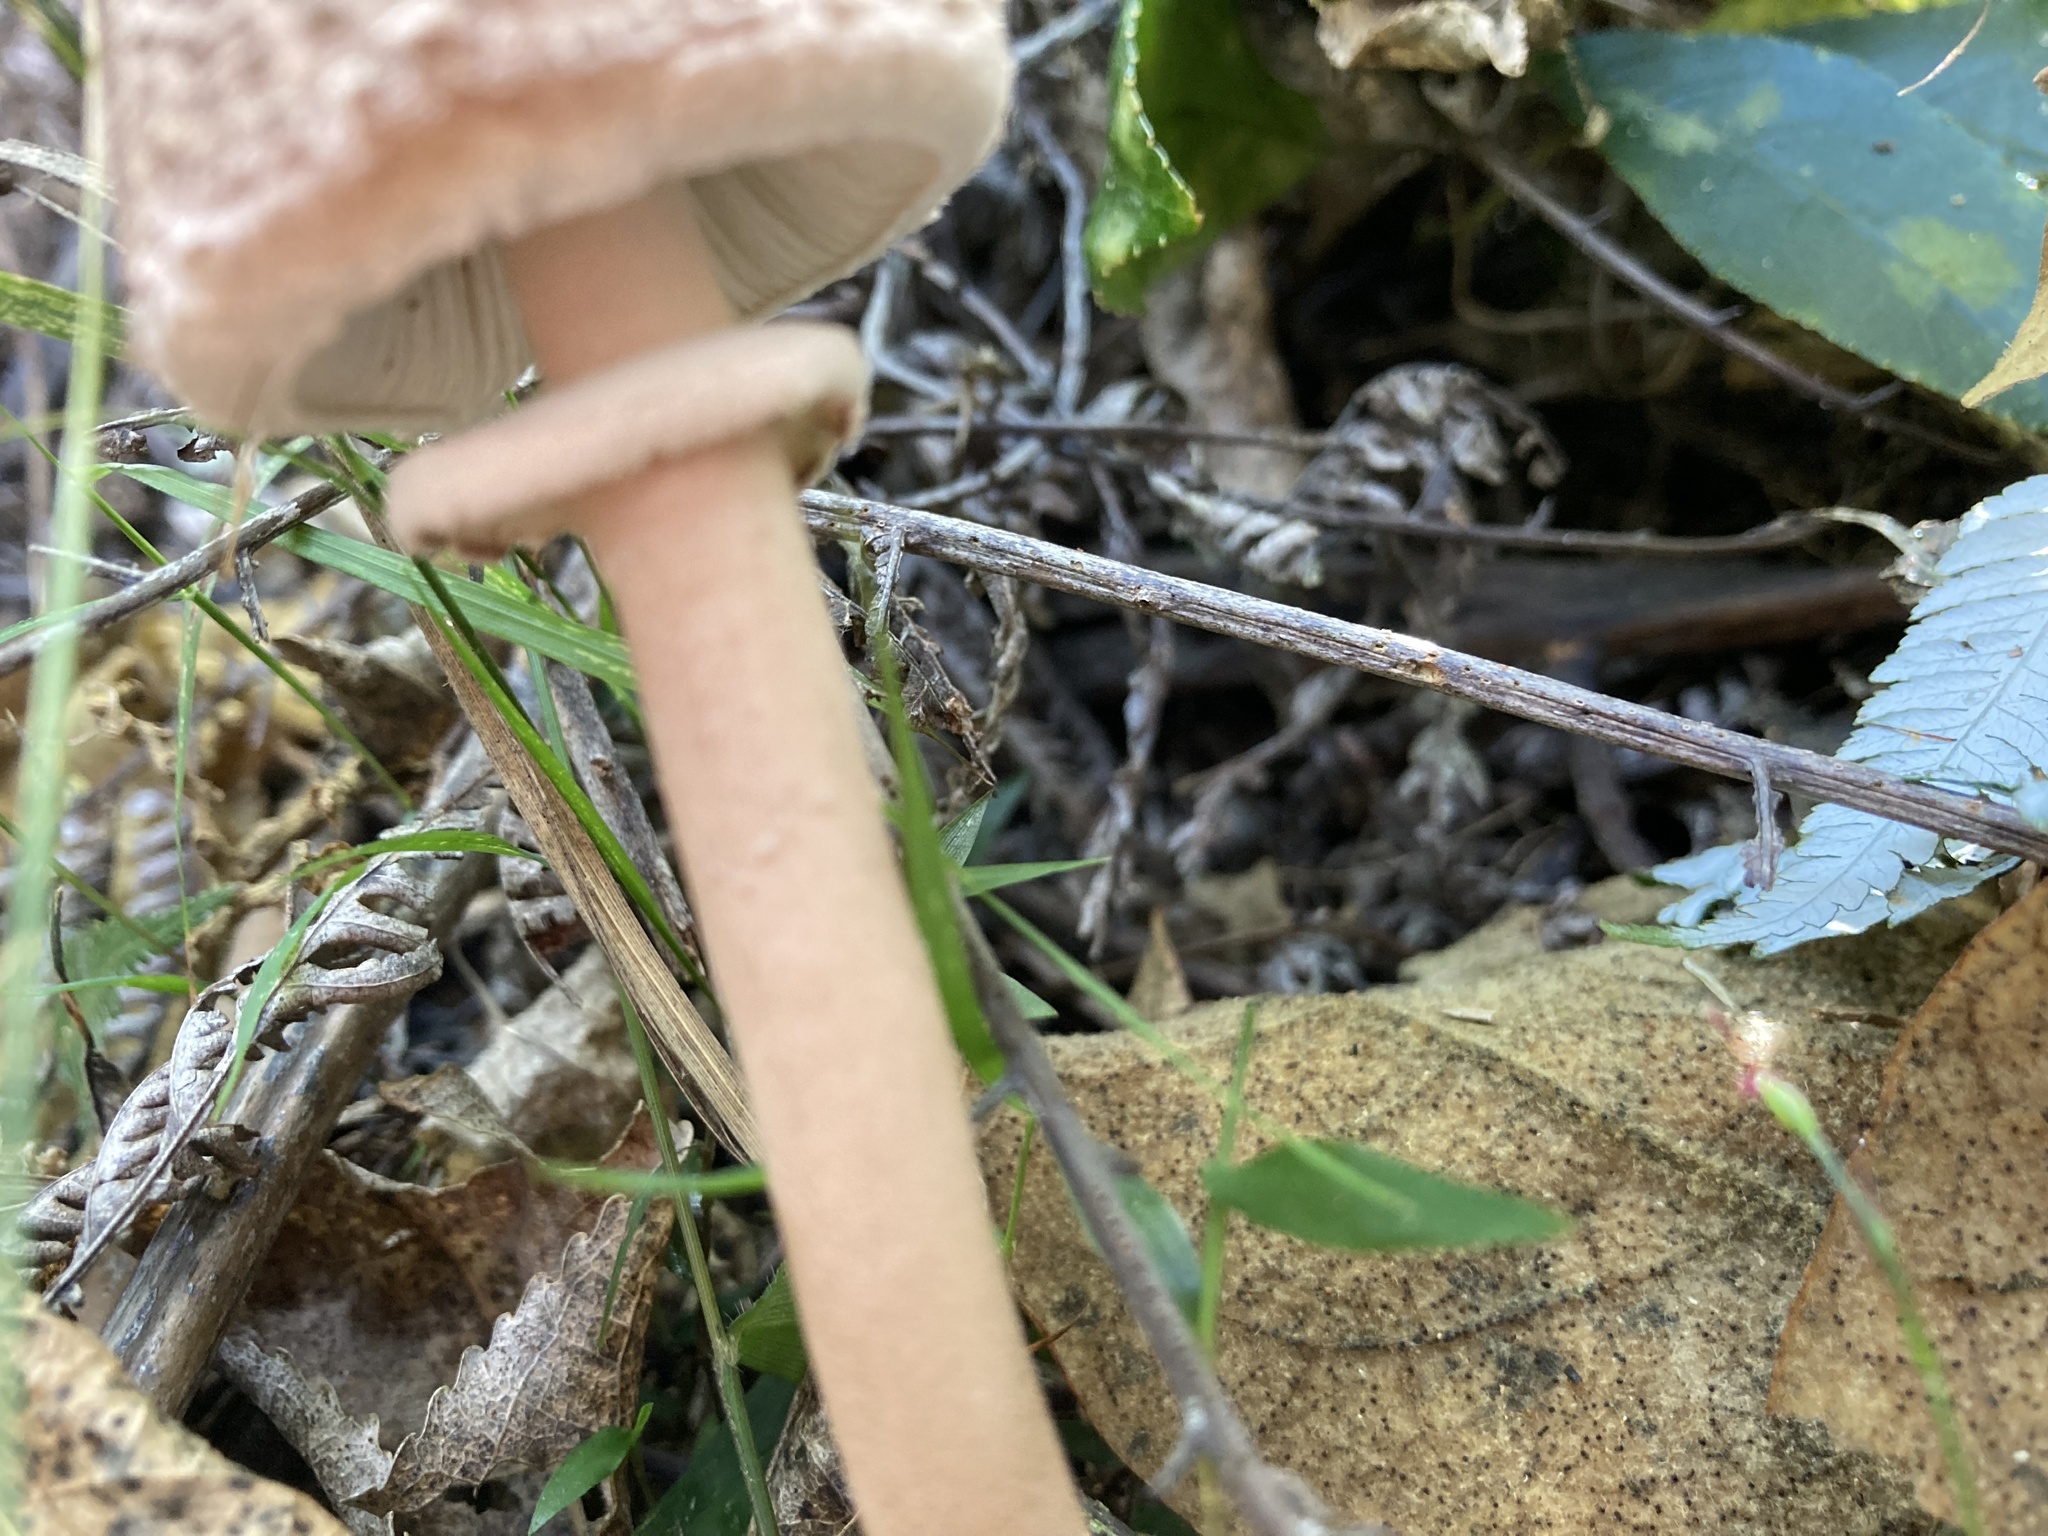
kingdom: Fungi
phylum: Basidiomycota
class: Agaricomycetes
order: Agaricales
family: Agaricaceae
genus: Macrolepiota
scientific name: Macrolepiota clelandii
